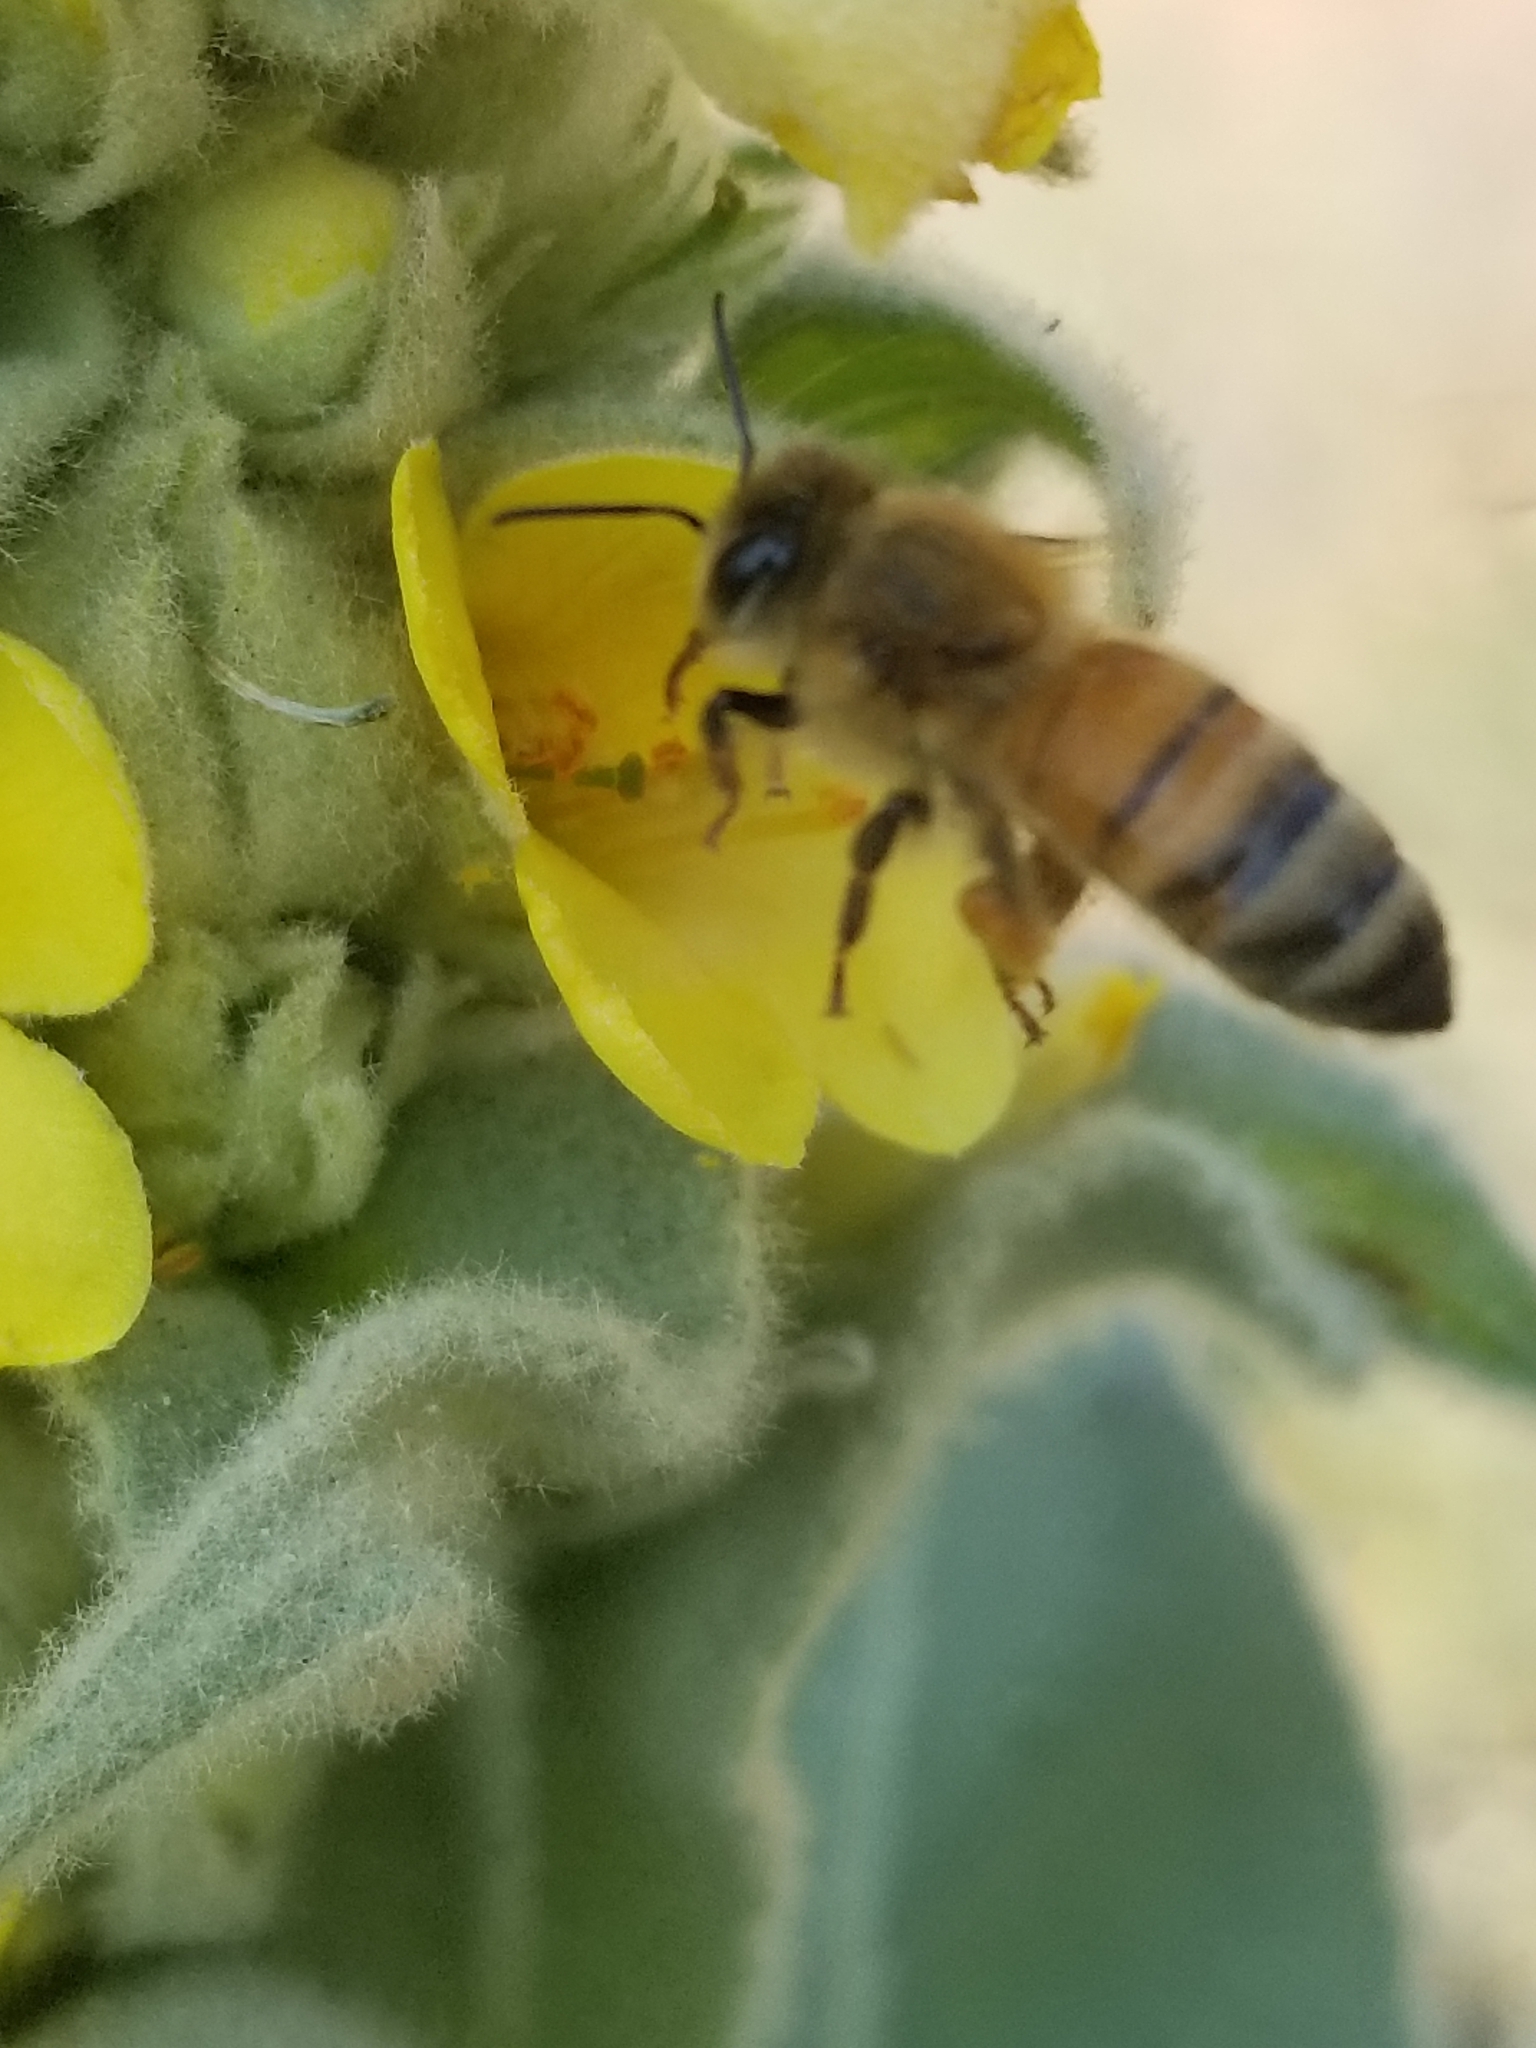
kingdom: Animalia
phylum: Arthropoda
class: Insecta
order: Hymenoptera
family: Apidae
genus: Apis
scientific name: Apis mellifera
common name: Honey bee
